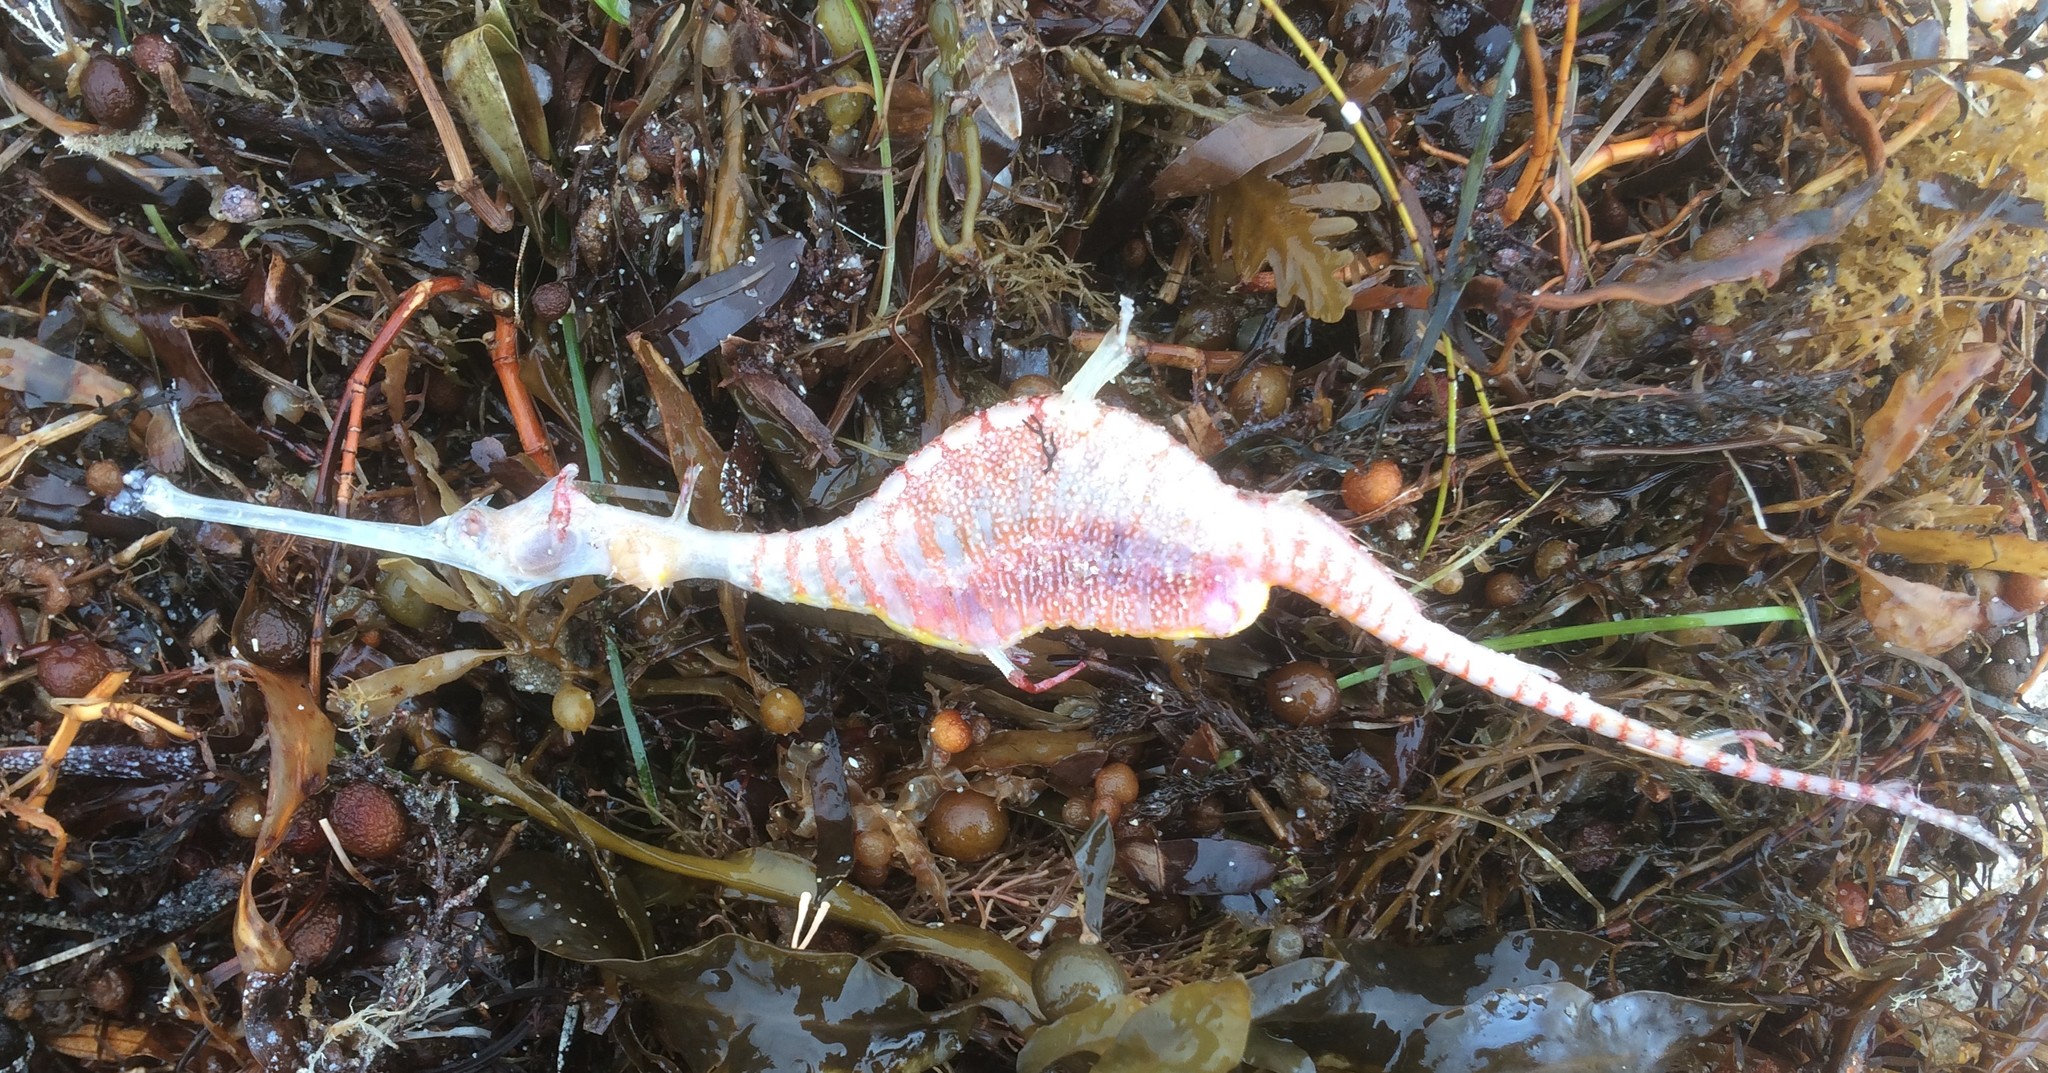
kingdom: Animalia
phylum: Chordata
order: Syngnathiformes
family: Syngnathidae
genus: Phyllopteryx
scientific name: Phyllopteryx taeniolatus
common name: Common seadragon
